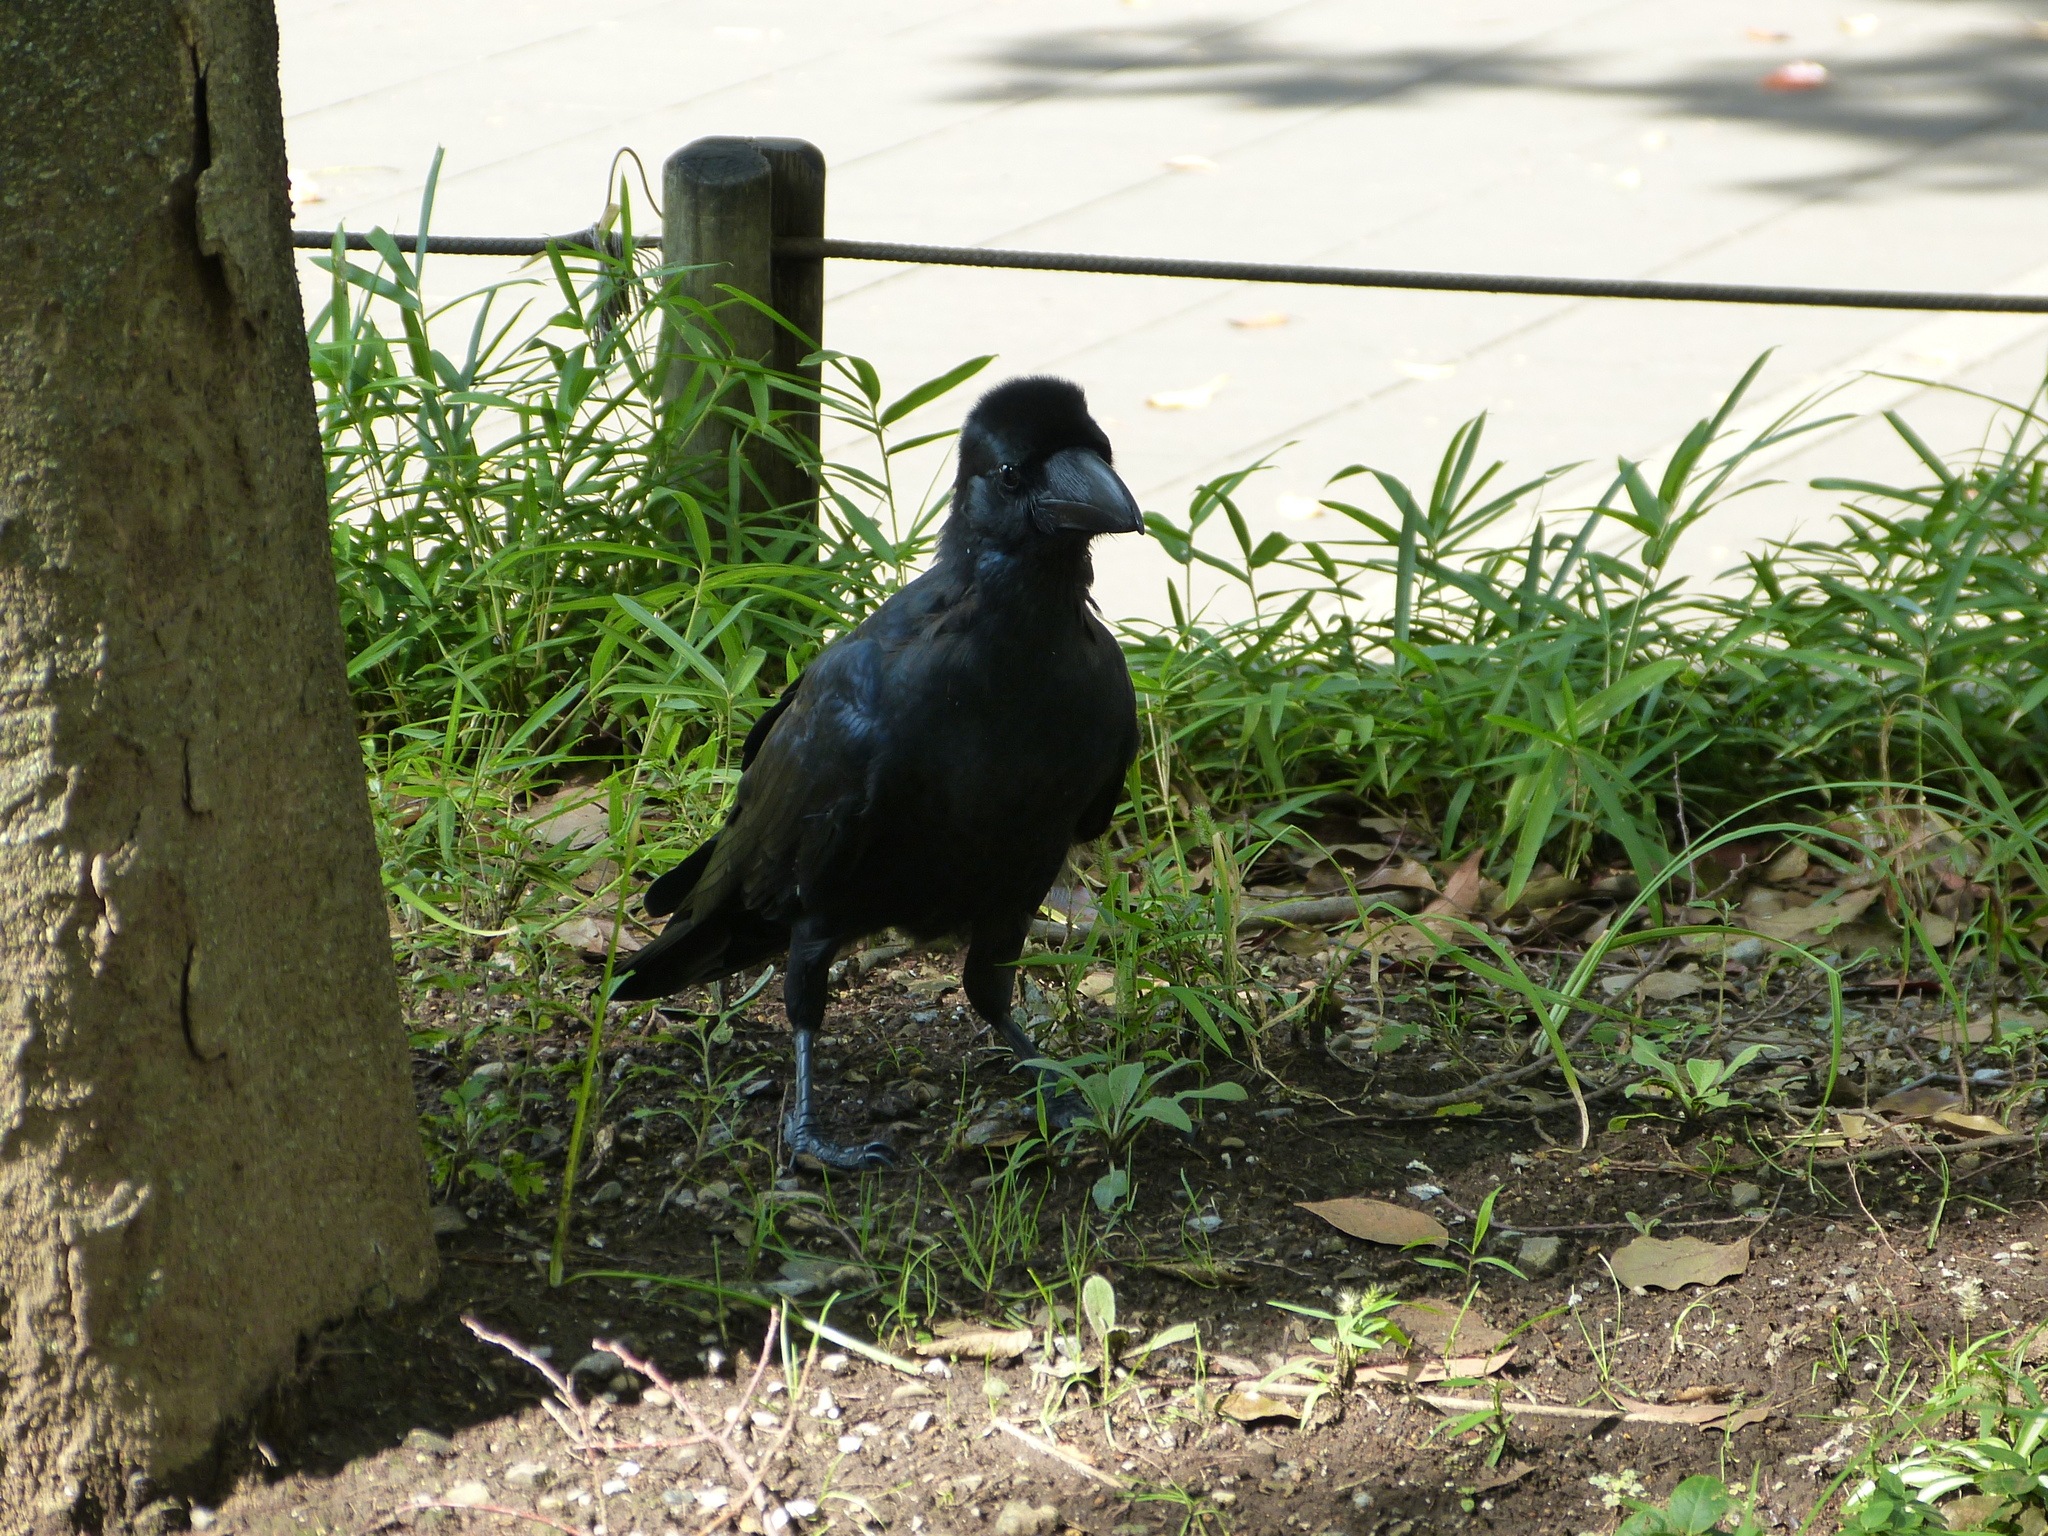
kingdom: Animalia
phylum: Chordata
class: Aves
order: Passeriformes
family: Corvidae
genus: Corvus
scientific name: Corvus macrorhynchos
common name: Large-billed crow
